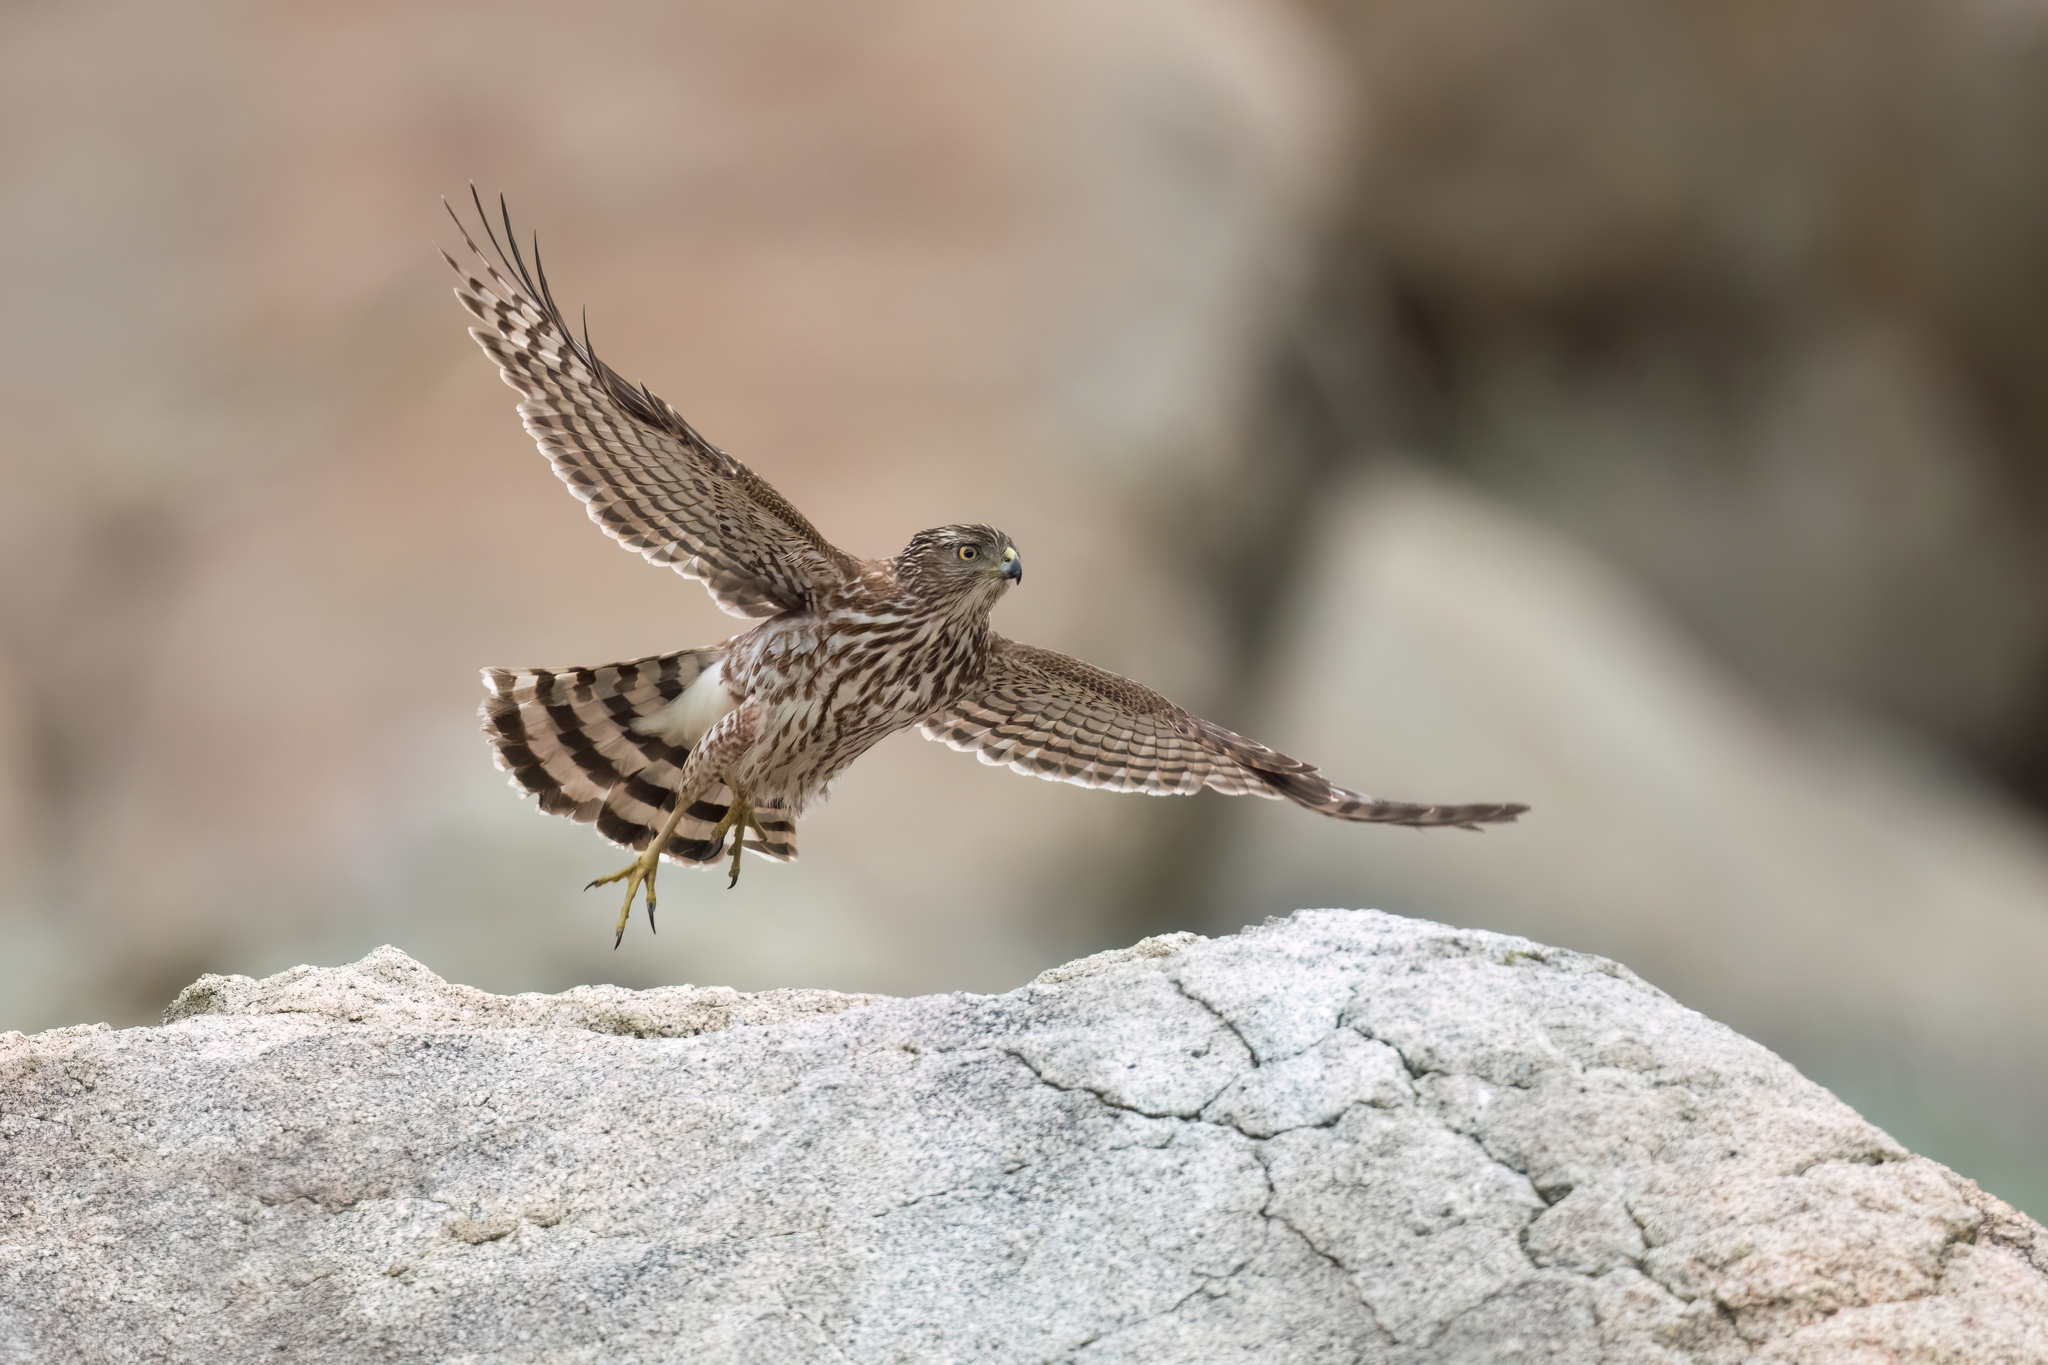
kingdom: Animalia
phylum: Chordata
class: Aves
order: Accipitriformes
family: Accipitridae
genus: Accipiter
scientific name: Accipiter cooperii
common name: Cooper's hawk
